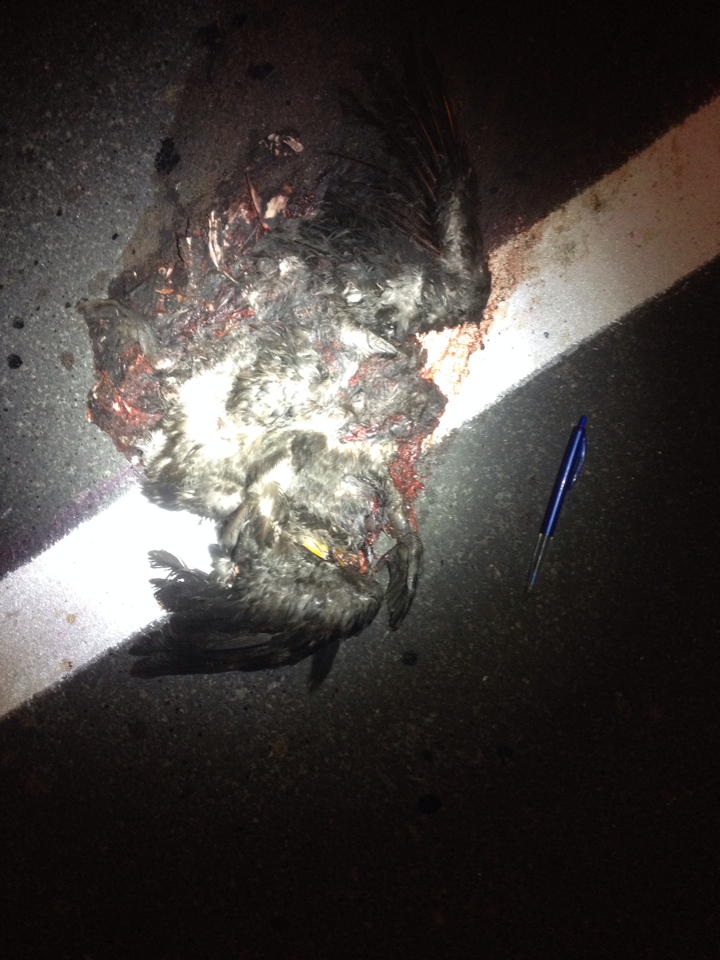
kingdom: Animalia
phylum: Chordata
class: Aves
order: Suliformes
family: Phalacrocoracidae
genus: Microcarbo
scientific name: Microcarbo melanoleucos
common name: Little pied cormorant
